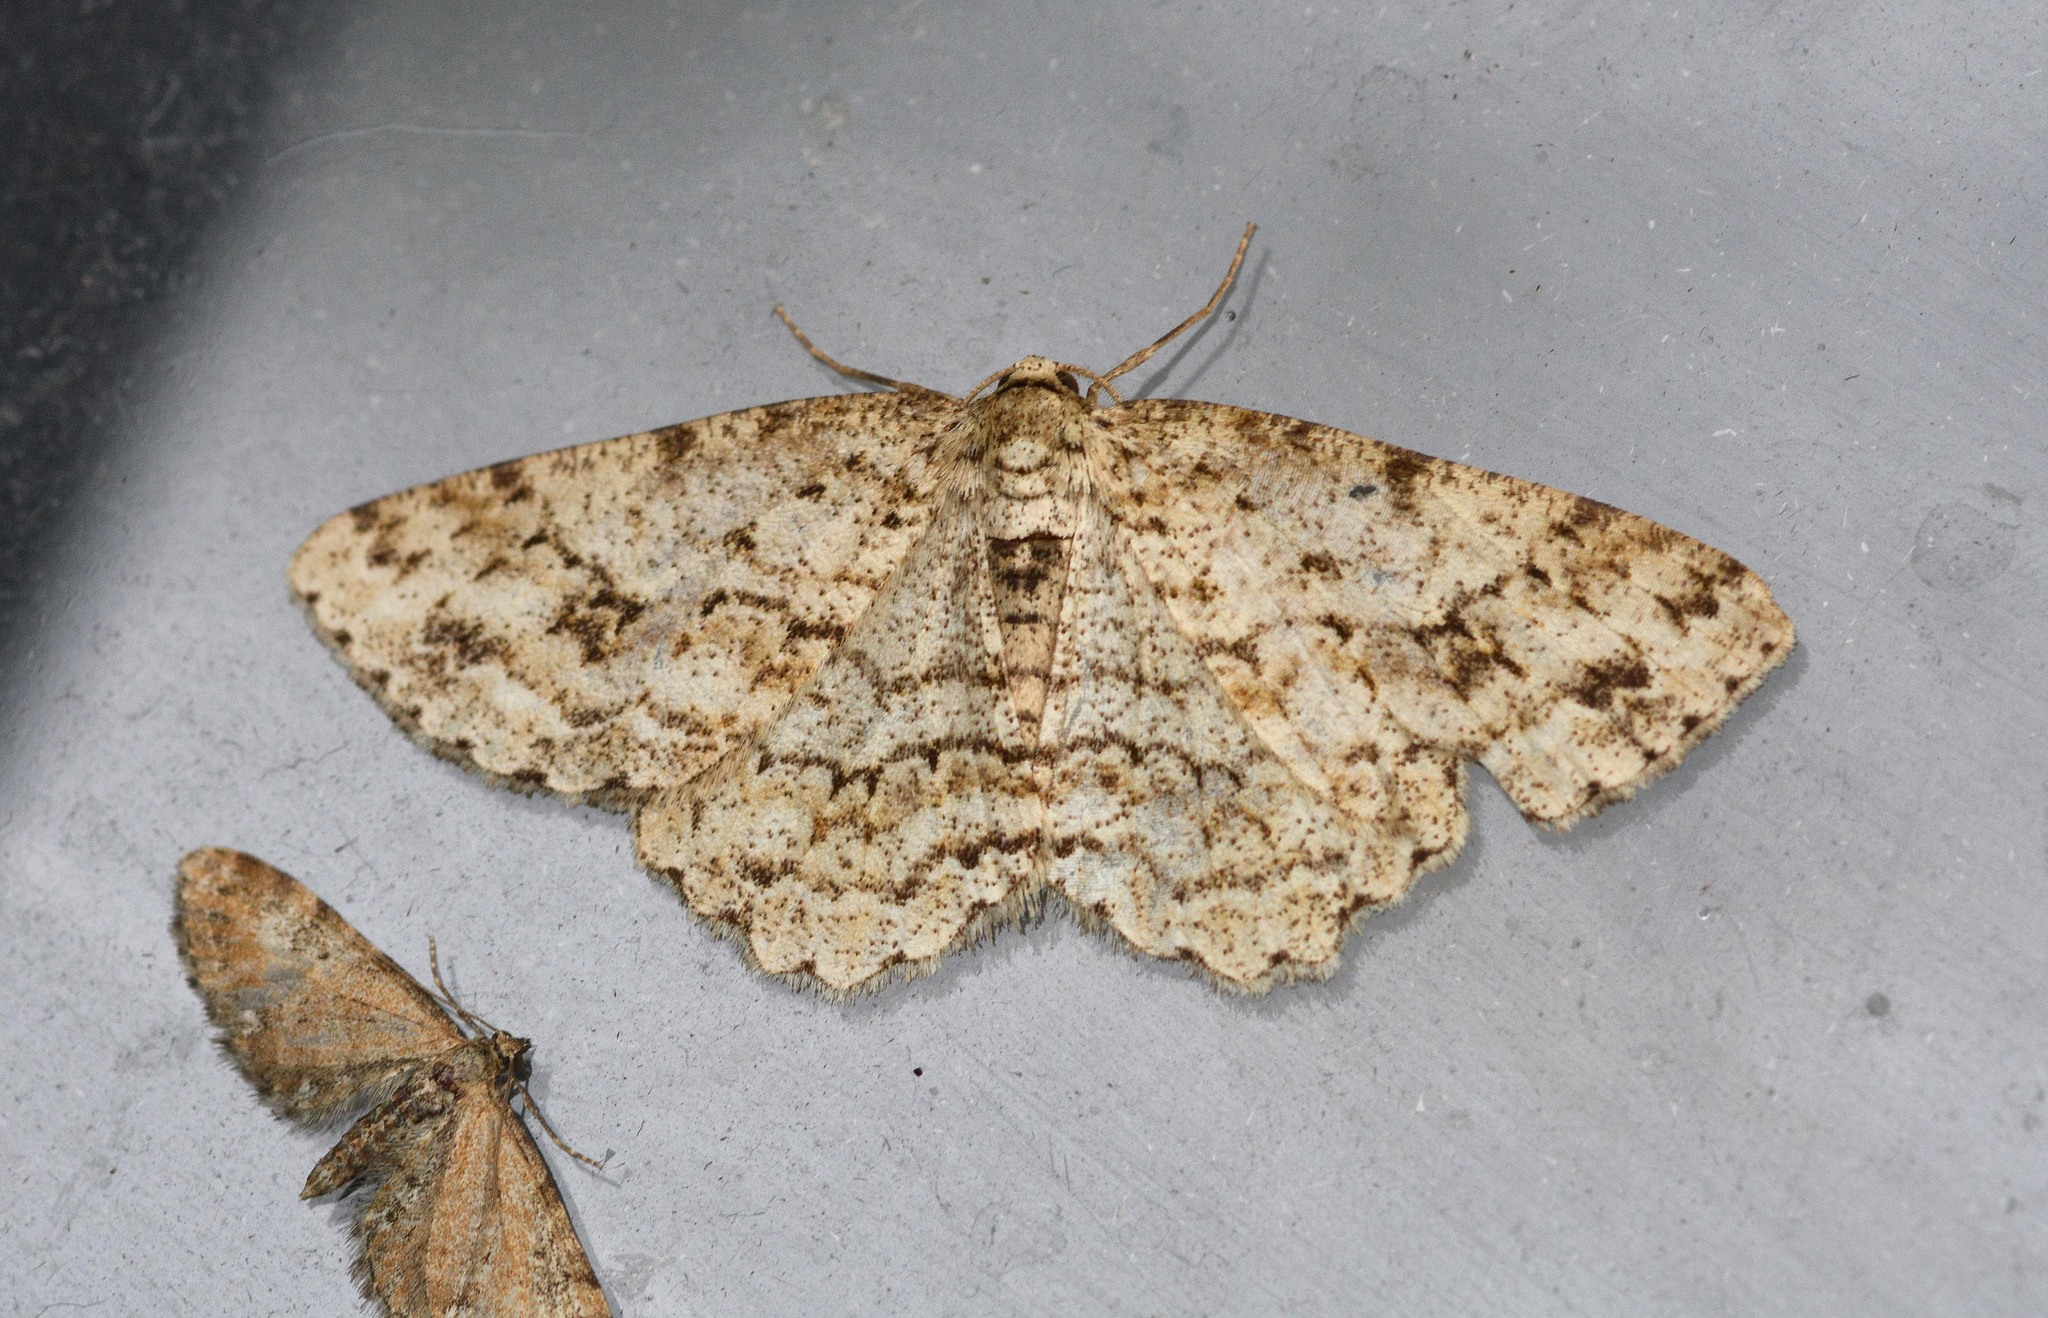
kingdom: Animalia
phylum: Arthropoda
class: Insecta
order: Lepidoptera
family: Geometridae
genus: Ectropis
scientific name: Ectropis crepuscularia
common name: Engrailed
